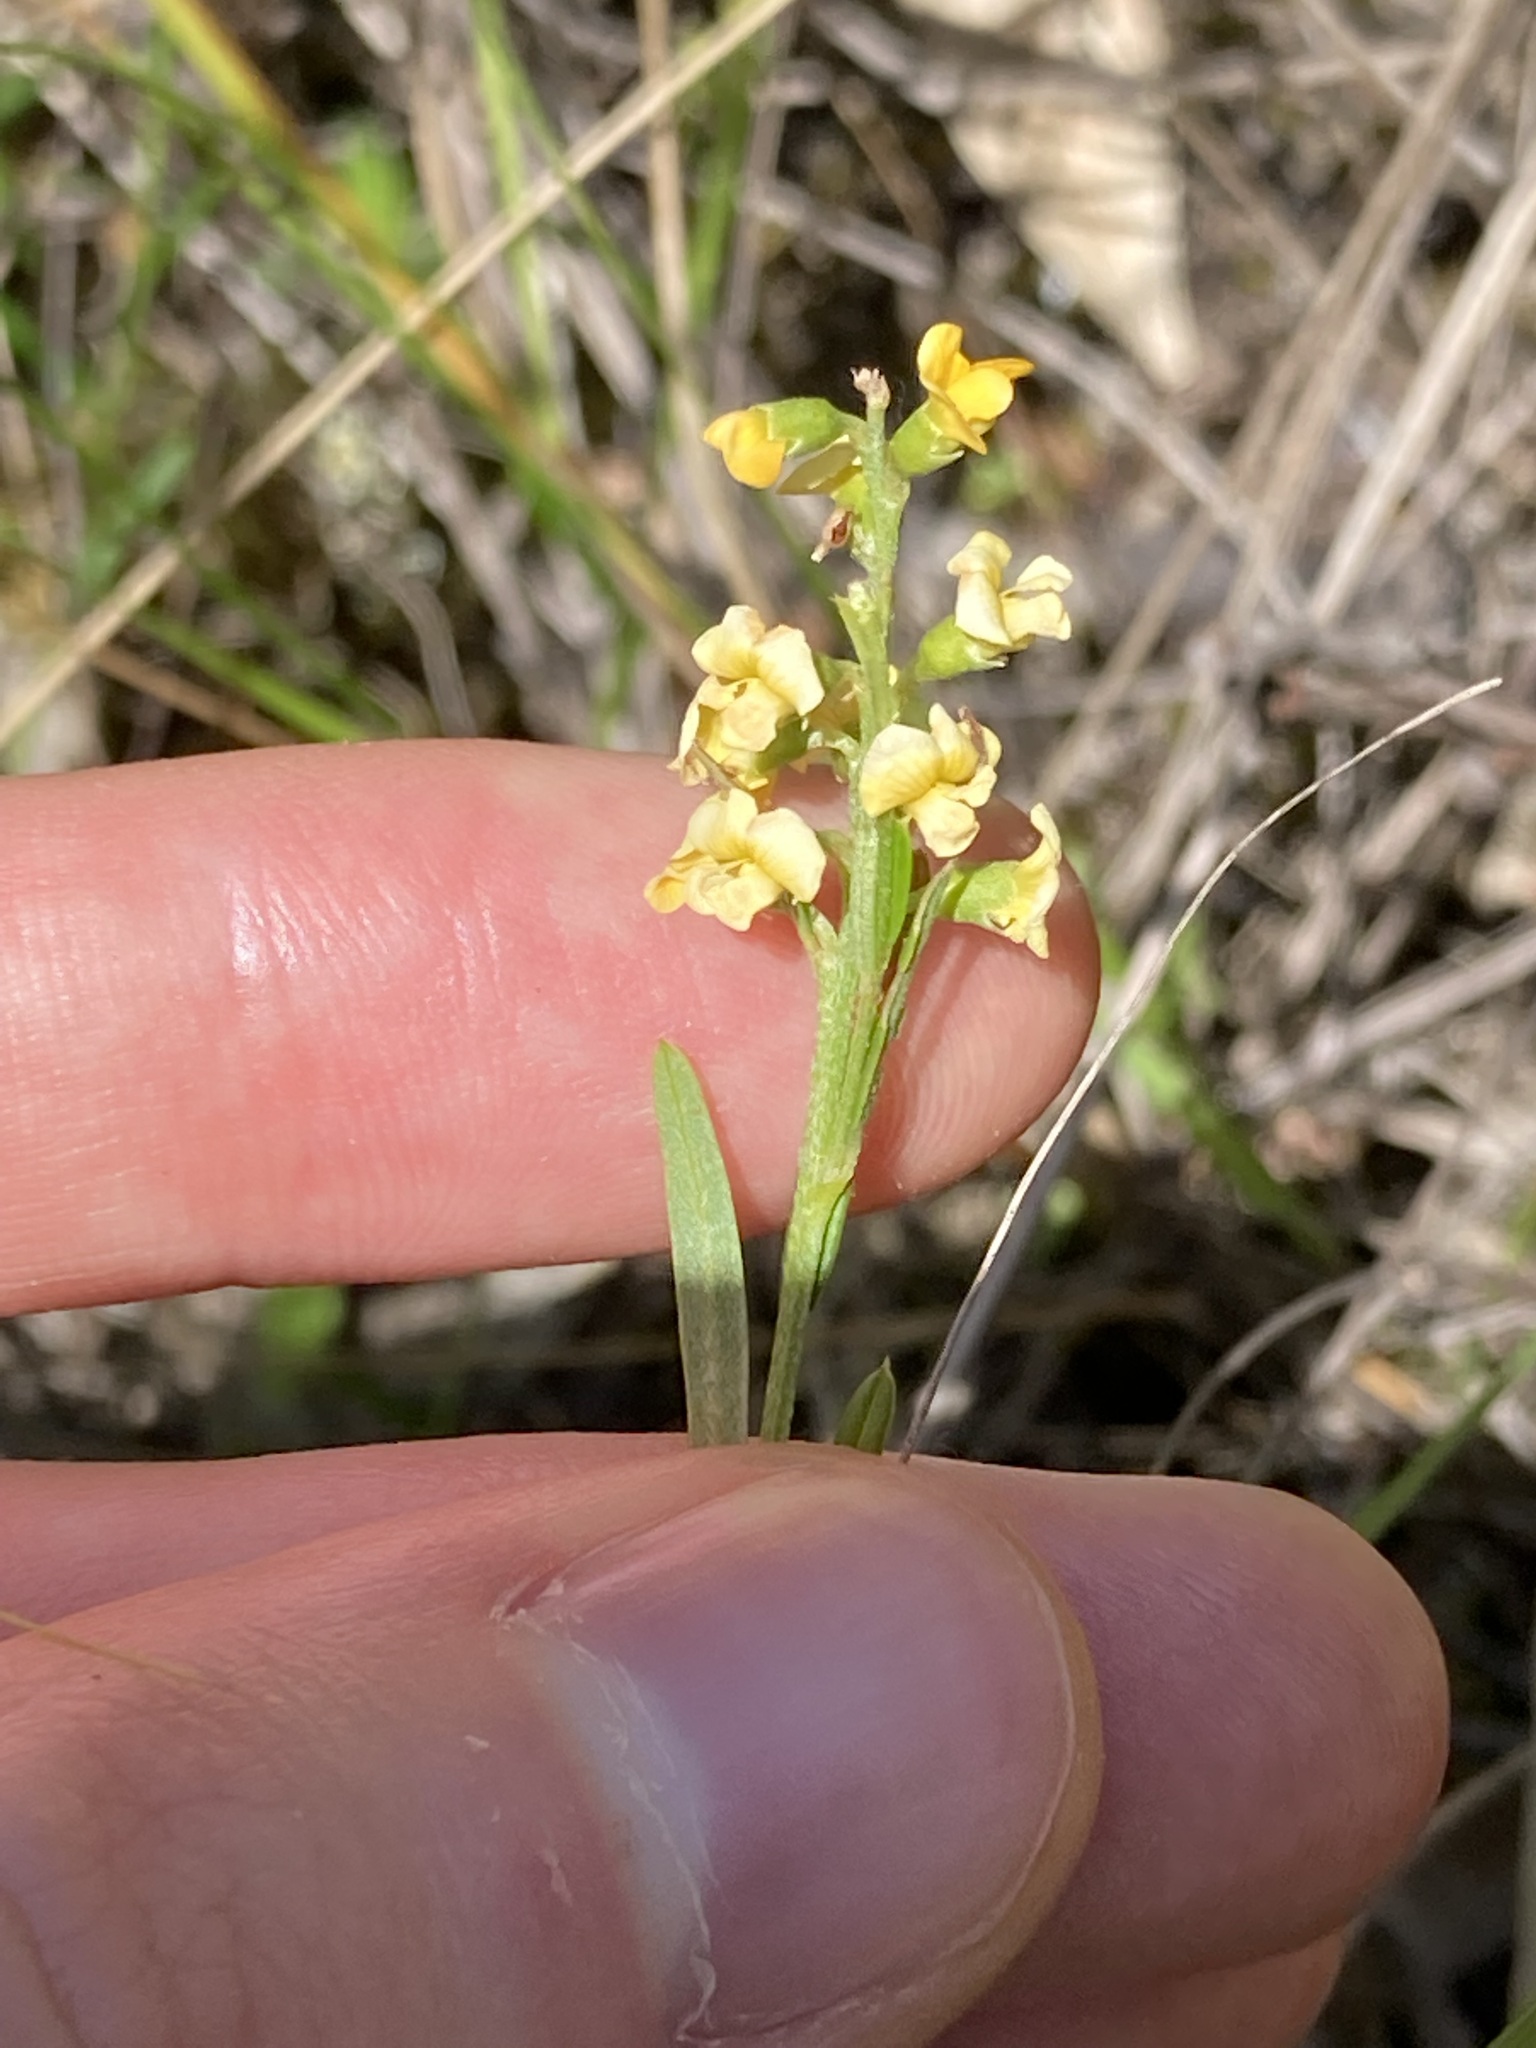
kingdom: Plantae
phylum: Tracheophyta
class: Magnoliopsida
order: Fabales
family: Fabaceae
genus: Chorizema
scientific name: Chorizema parviflorum
